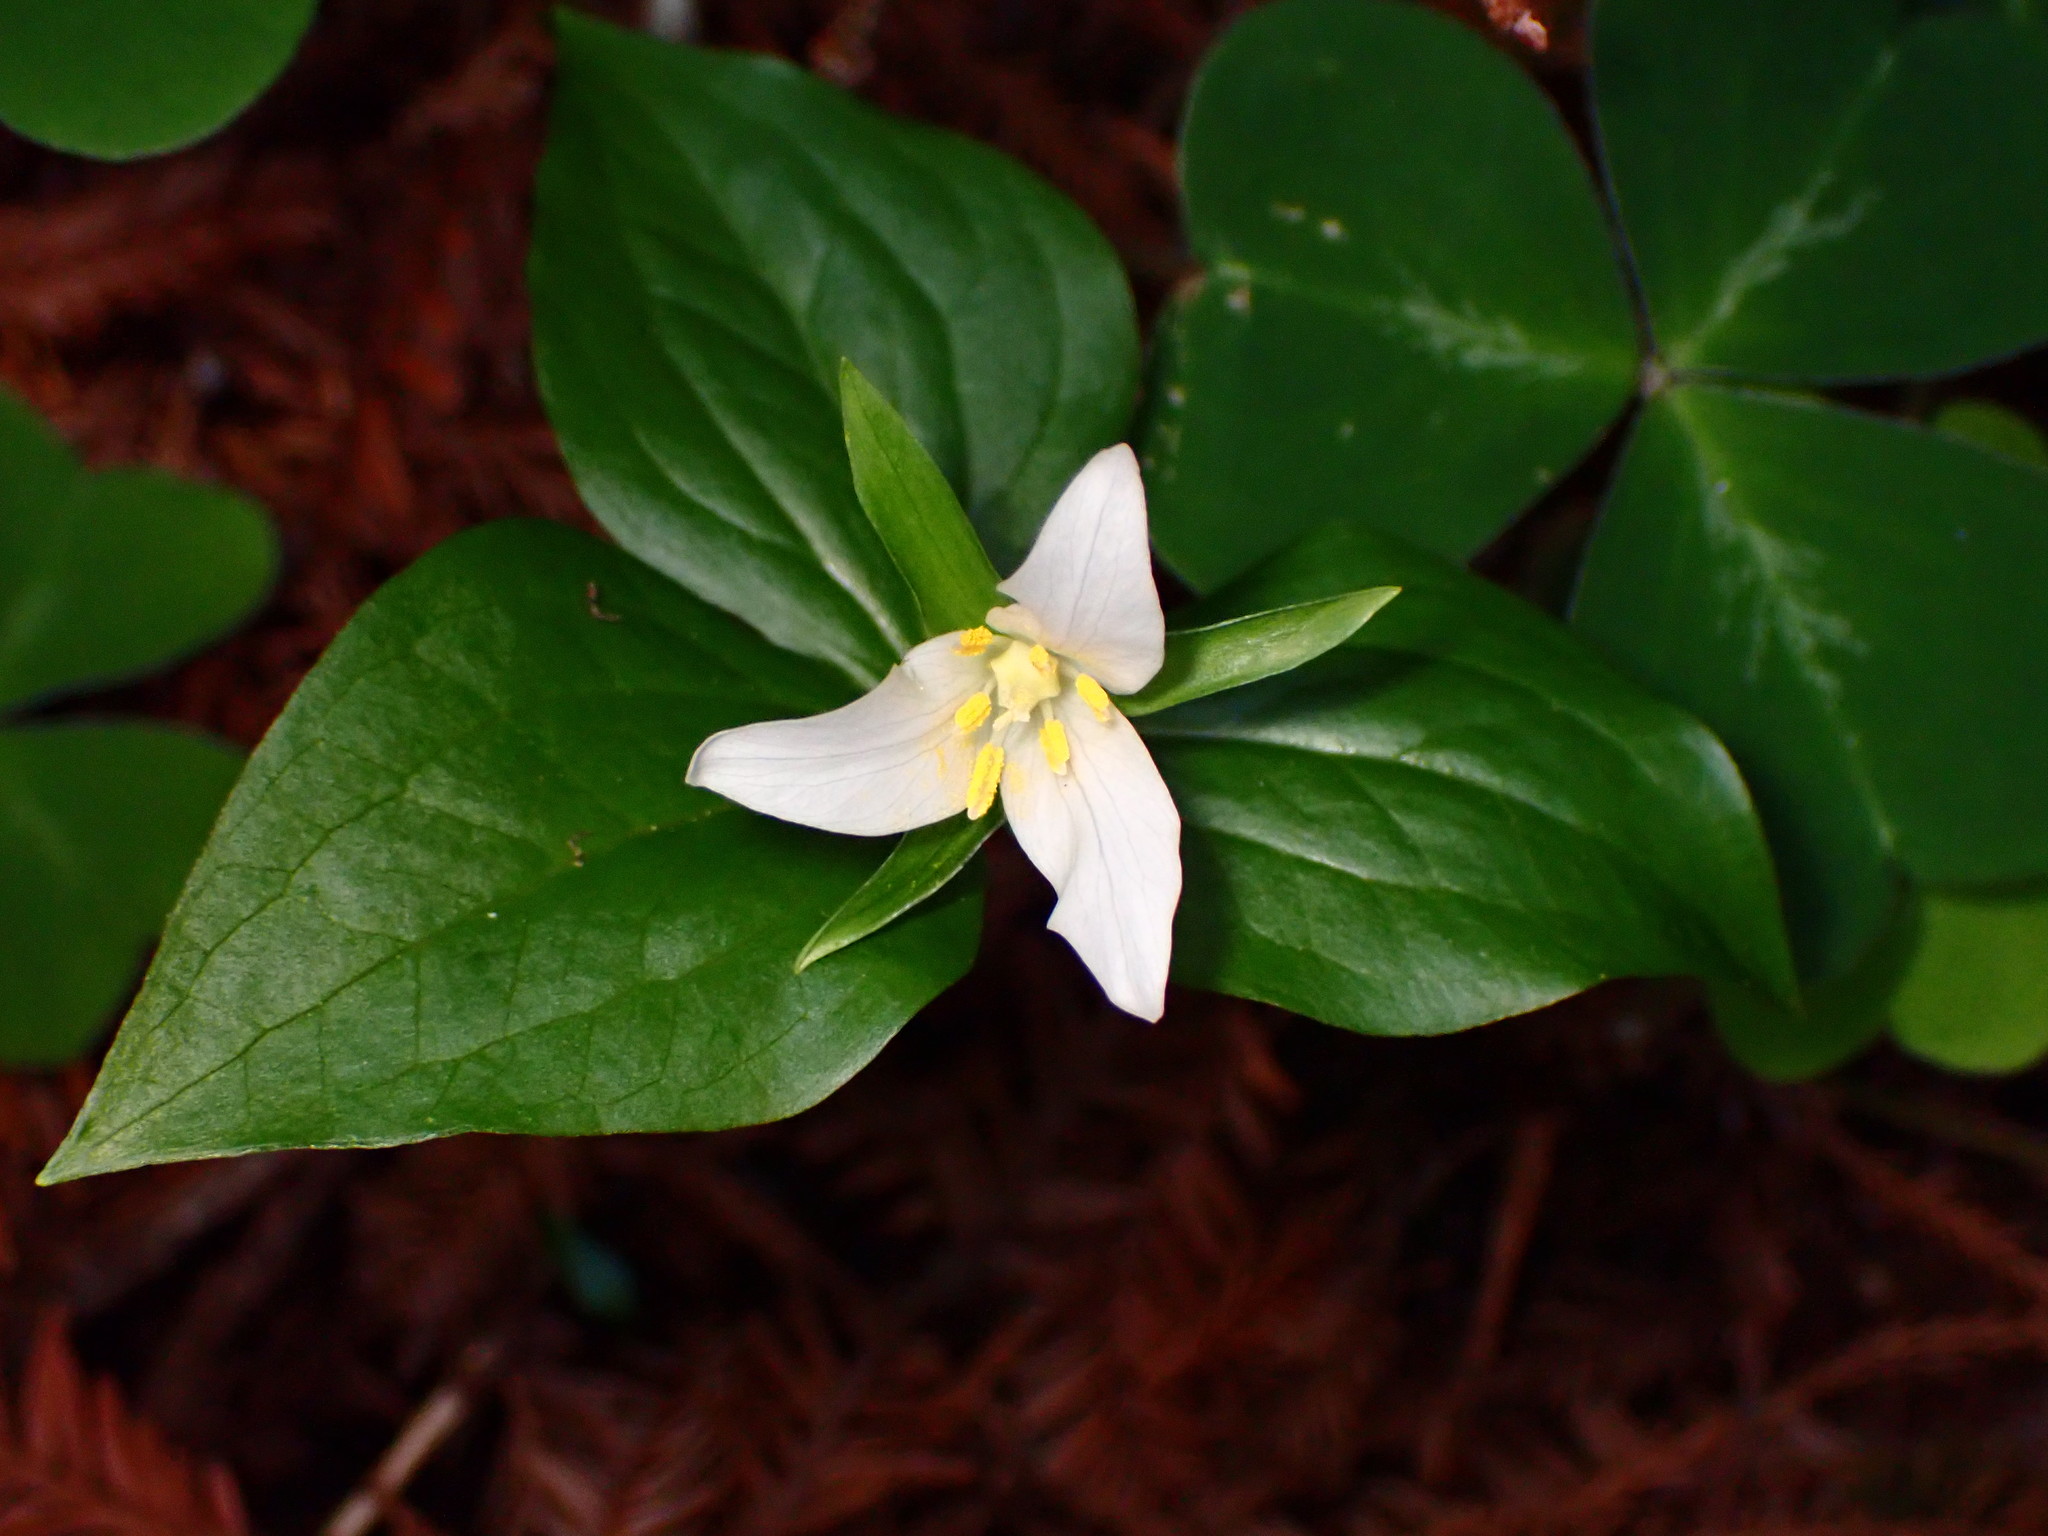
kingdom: Plantae
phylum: Tracheophyta
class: Liliopsida
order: Liliales
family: Melanthiaceae
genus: Trillium
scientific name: Trillium ovatum
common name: Pacific trillium
